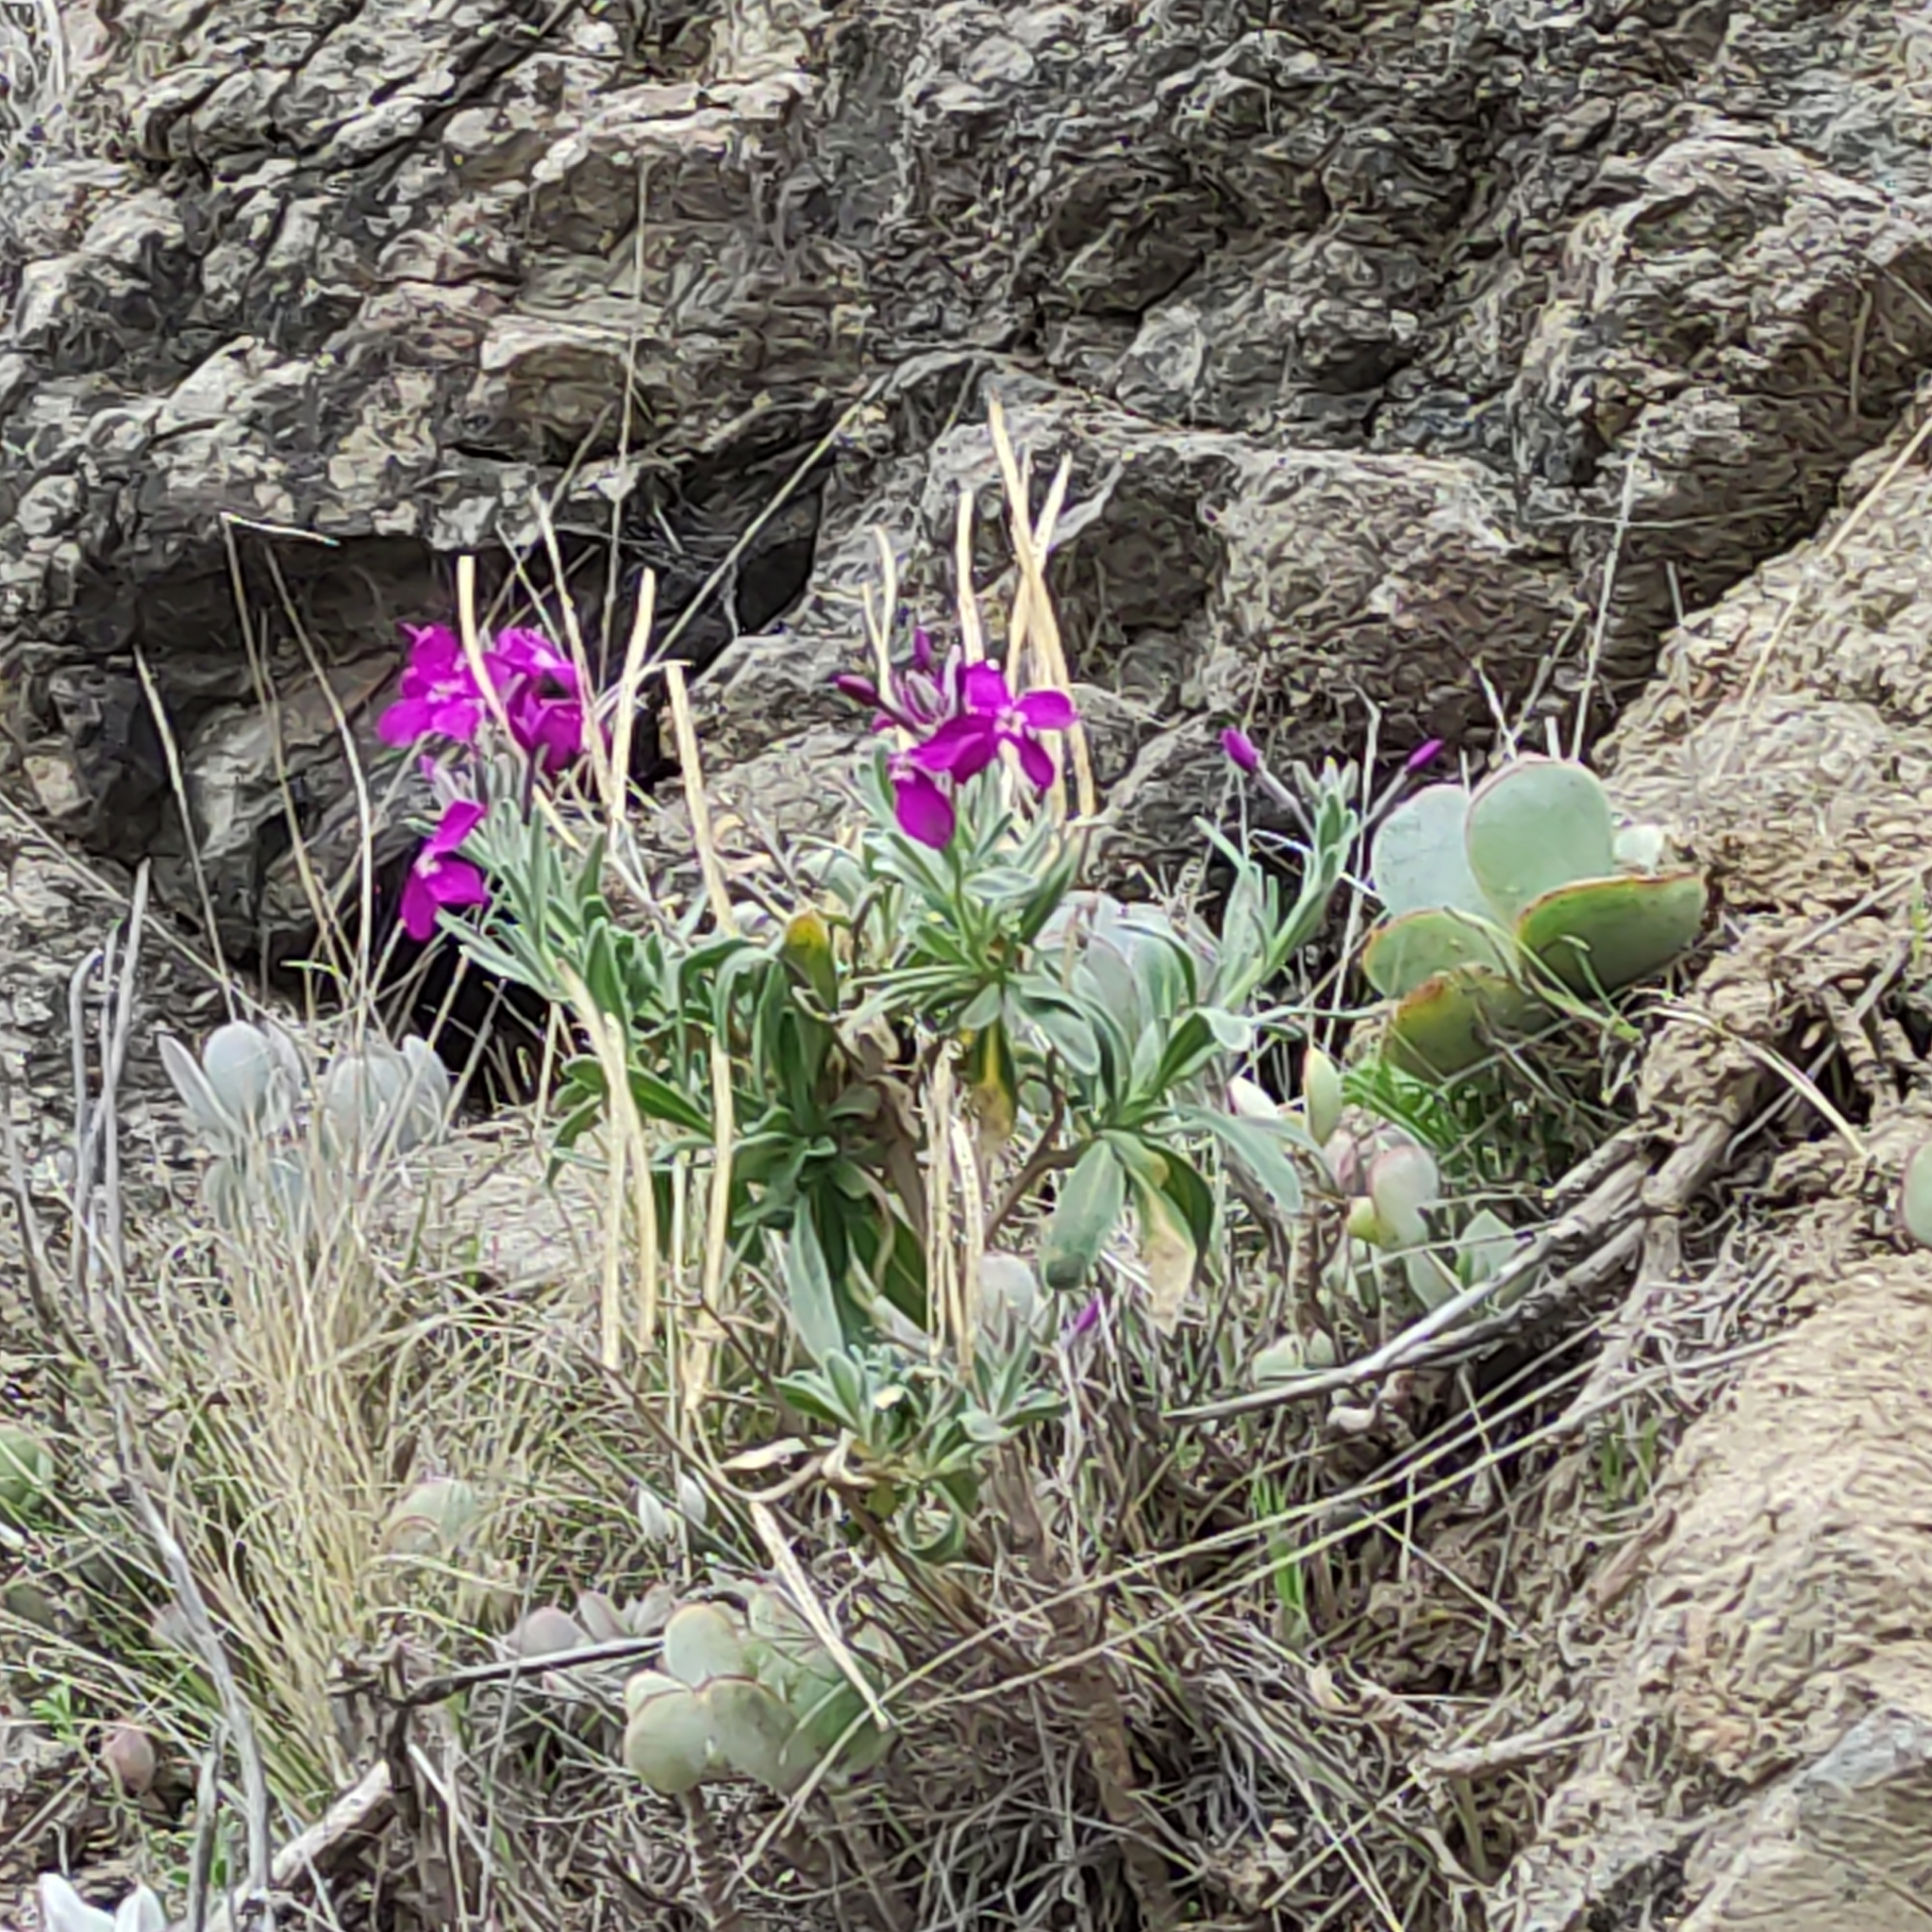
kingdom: Plantae
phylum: Tracheophyta
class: Magnoliopsida
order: Brassicales
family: Brassicaceae
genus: Matthiola
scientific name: Matthiola incana
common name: Hoary stock
